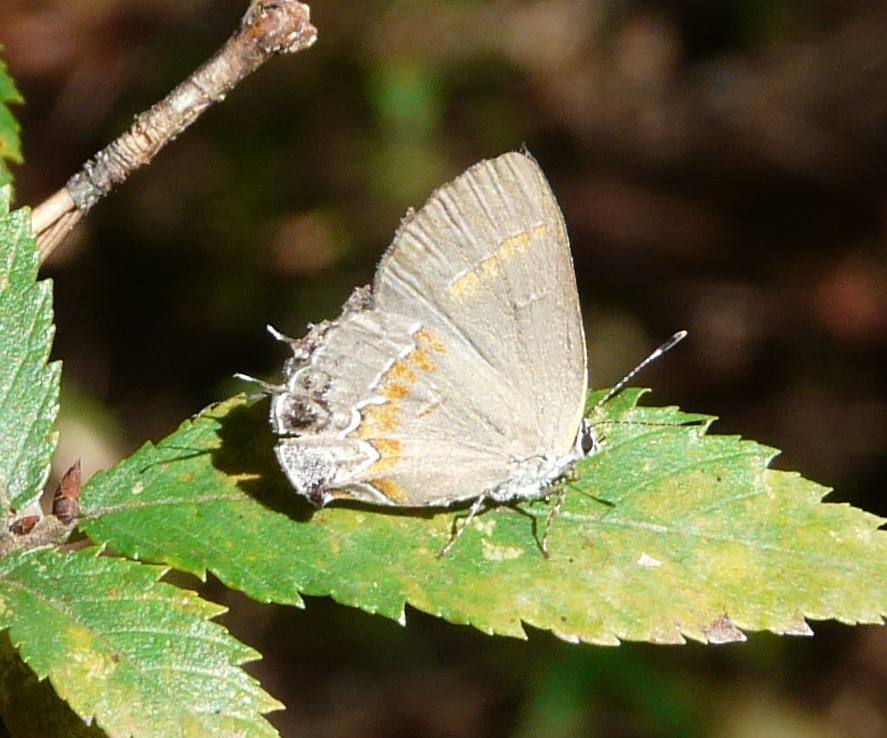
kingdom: Animalia
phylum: Arthropoda
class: Insecta
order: Lepidoptera
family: Lycaenidae
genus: Calycopis
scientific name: Calycopis cecrops
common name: Red-banded hairstreak
